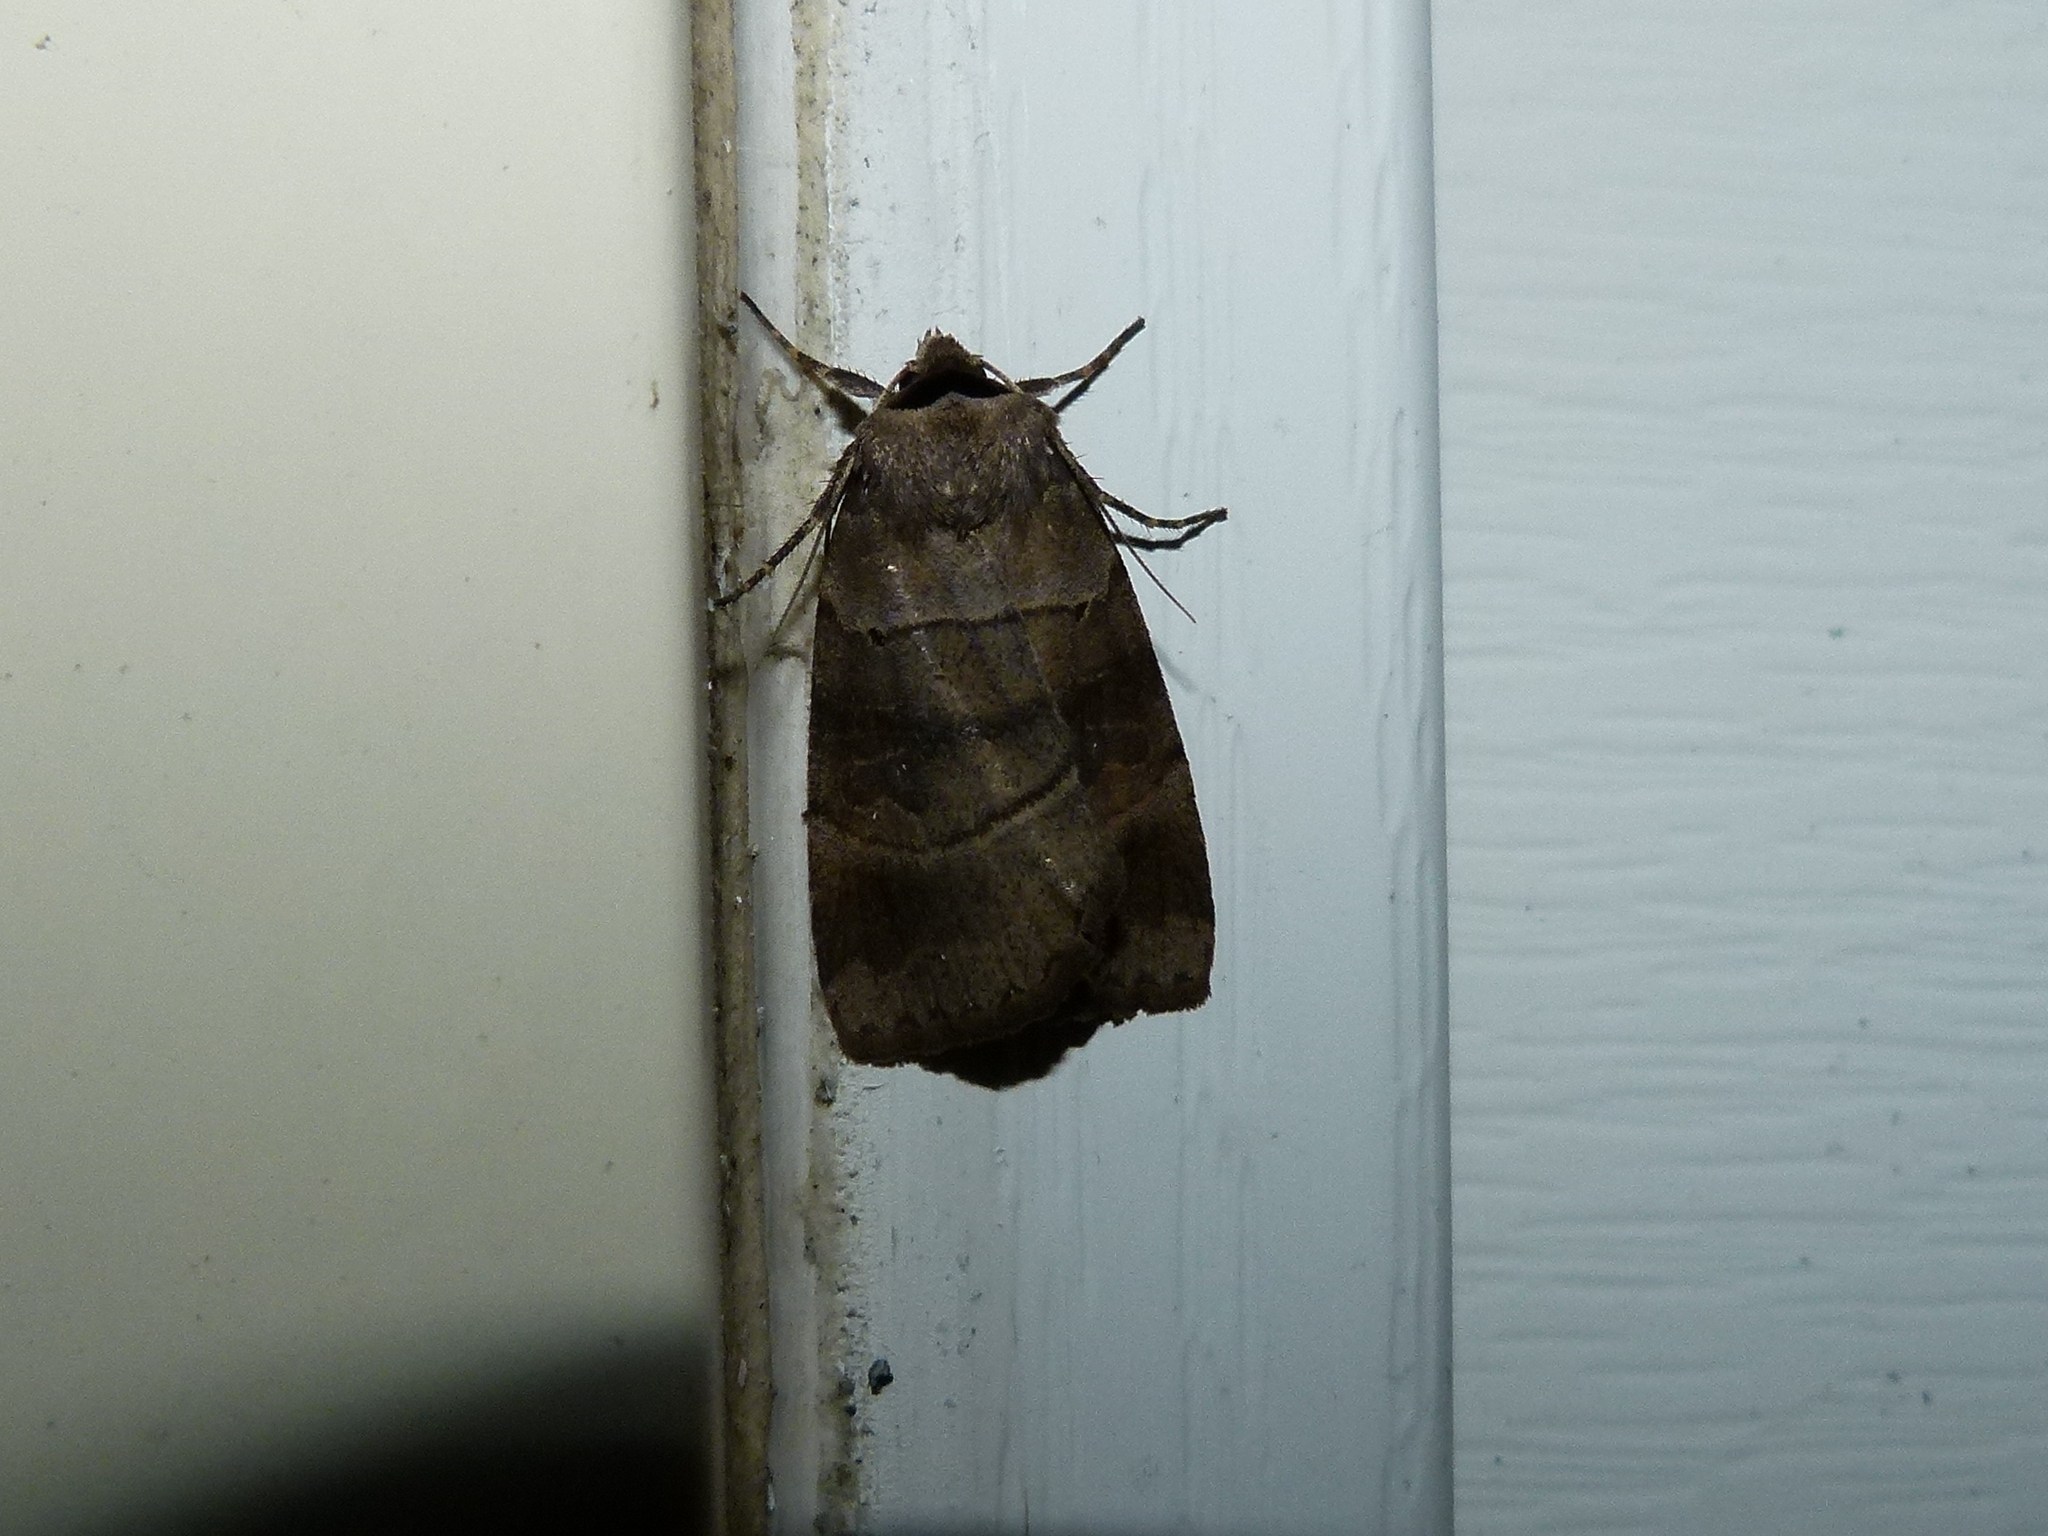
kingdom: Animalia
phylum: Arthropoda
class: Insecta
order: Lepidoptera
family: Noctuidae
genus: Agnorisma
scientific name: Agnorisma badinodis
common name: Pale-banded dart
